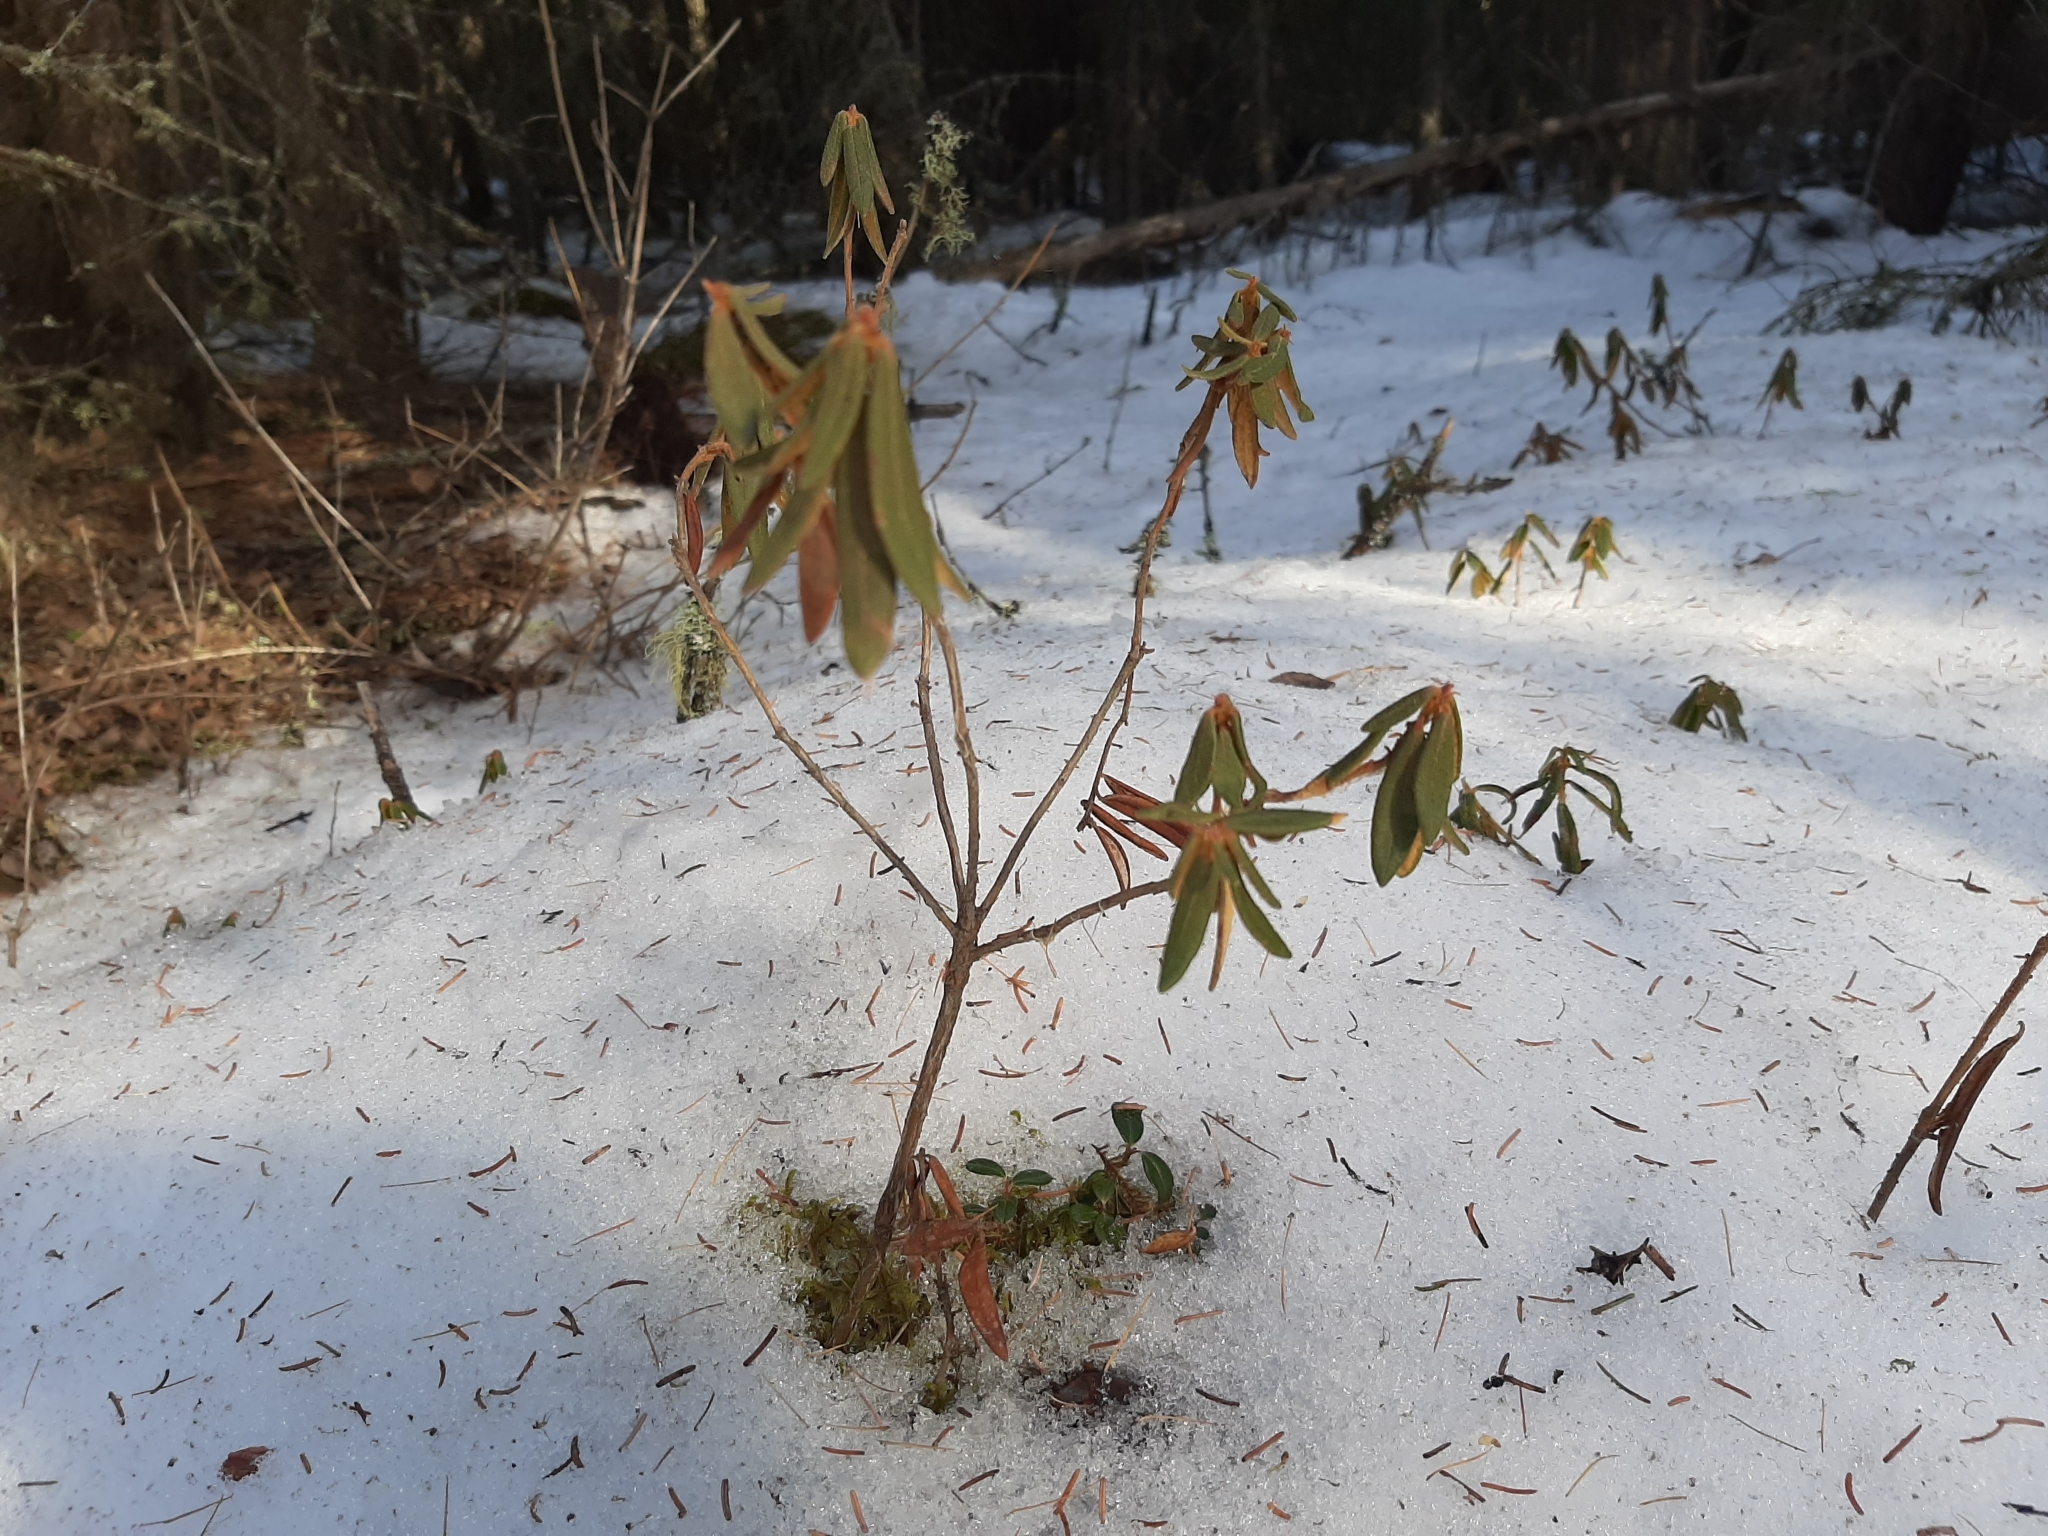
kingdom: Plantae
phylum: Tracheophyta
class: Magnoliopsida
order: Ericales
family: Ericaceae
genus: Rhododendron
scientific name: Rhododendron groenlandicum
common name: Bog labrador tea
